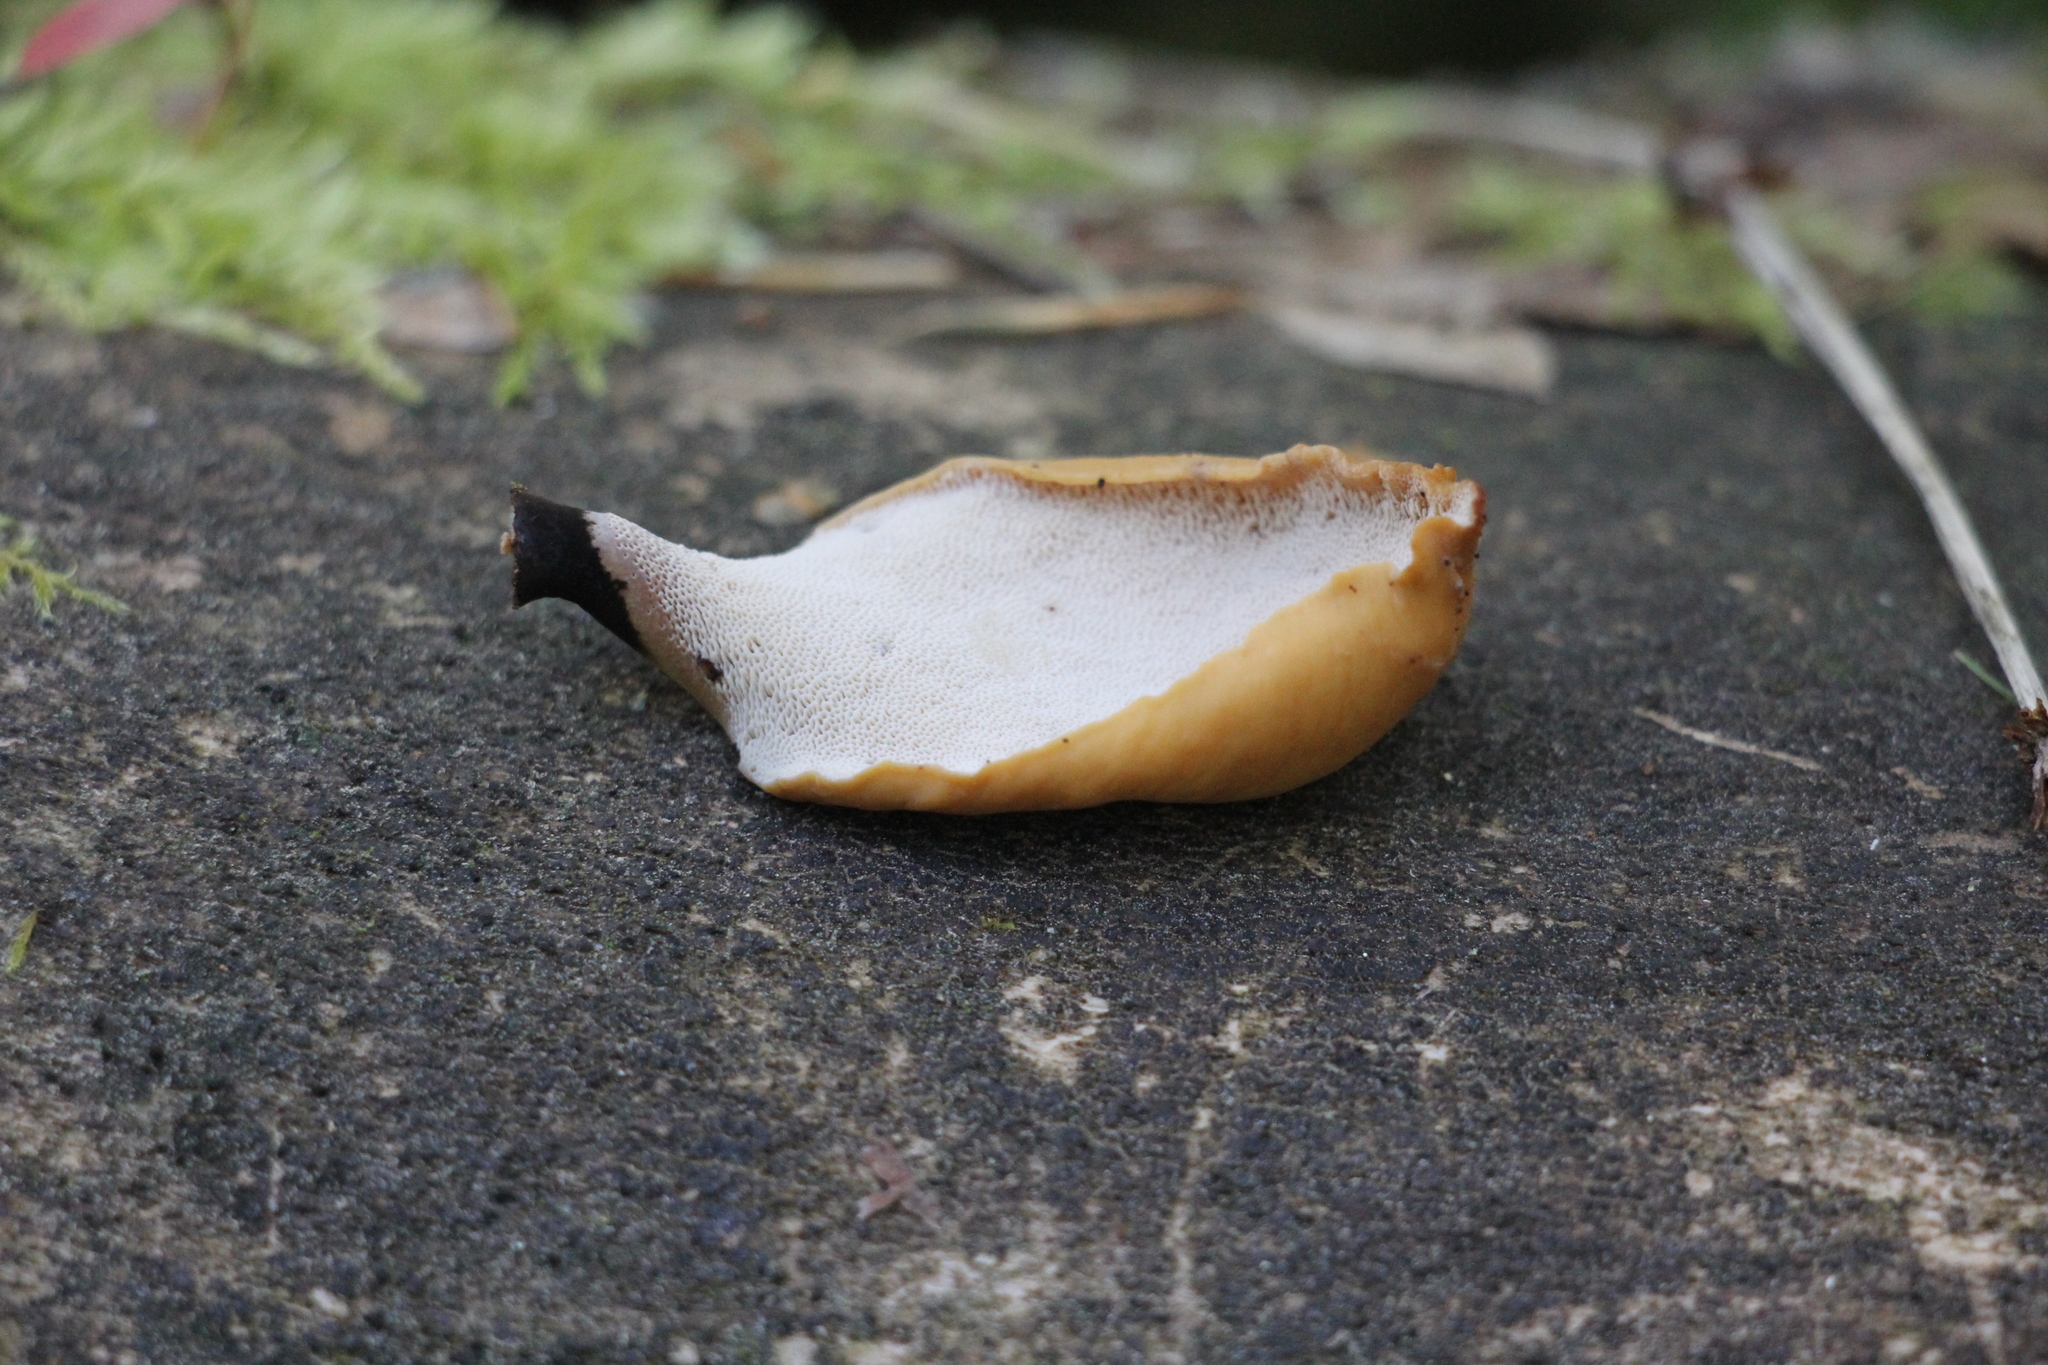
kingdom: Fungi
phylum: Basidiomycota
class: Agaricomycetes
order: Polyporales
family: Polyporaceae
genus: Cerioporus
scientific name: Cerioporus varius
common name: Elegant polypore
